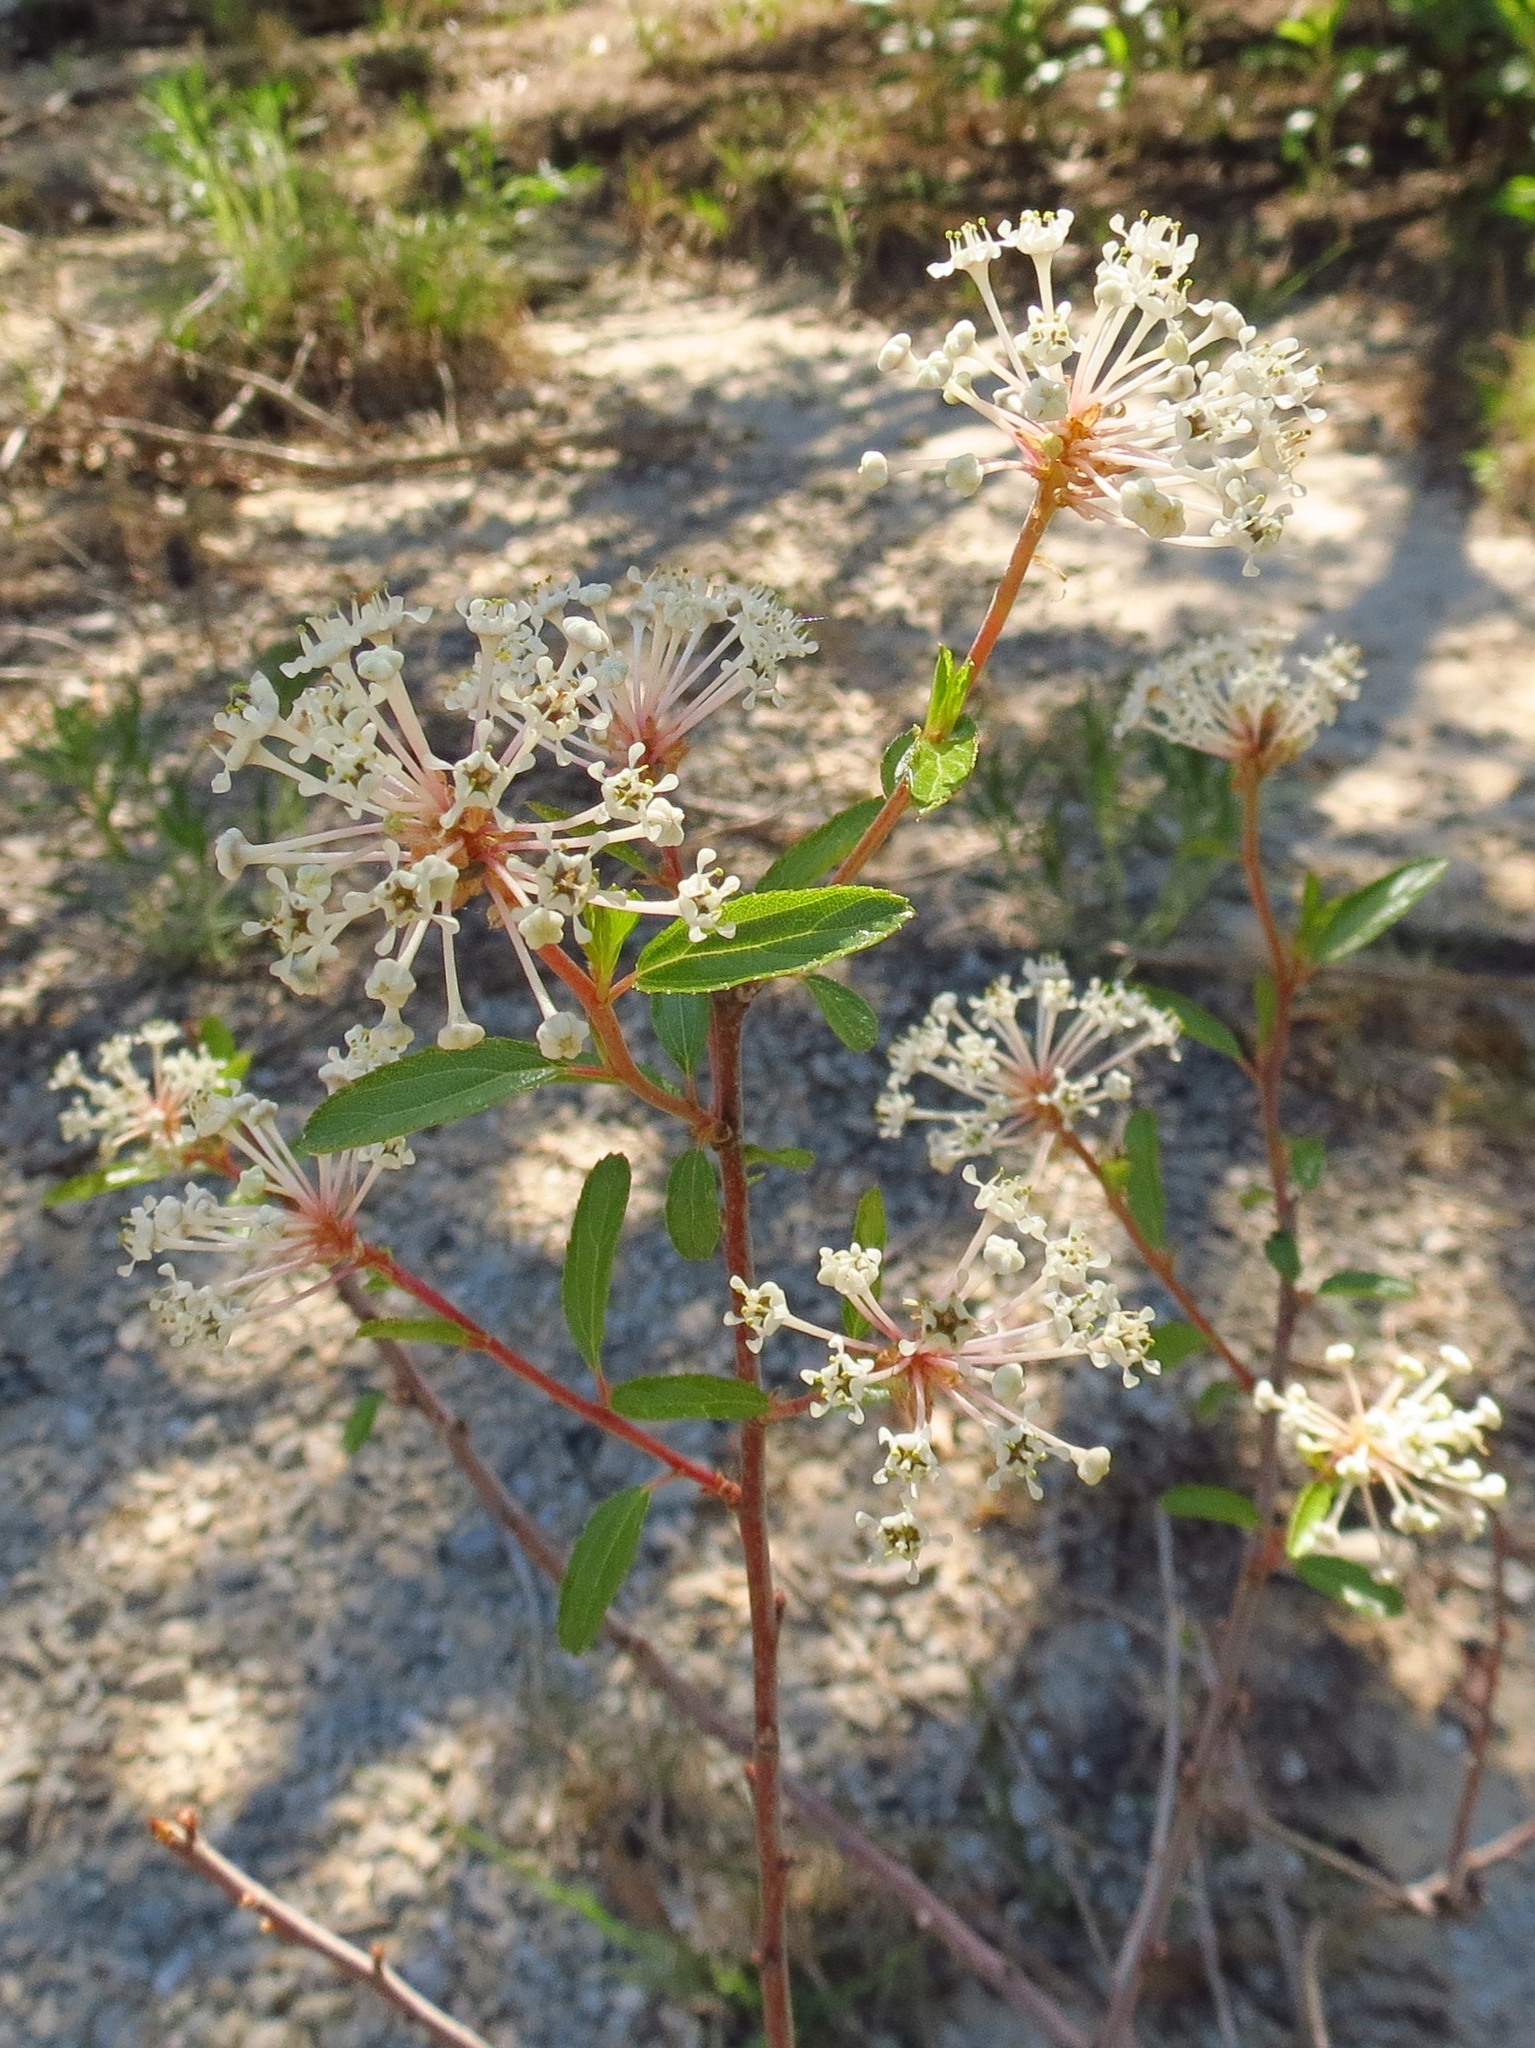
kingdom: Plantae
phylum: Tracheophyta
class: Magnoliopsida
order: Rosales
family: Rhamnaceae
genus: Ceanothus
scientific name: Ceanothus herbaceus
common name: Inland ceanothus
